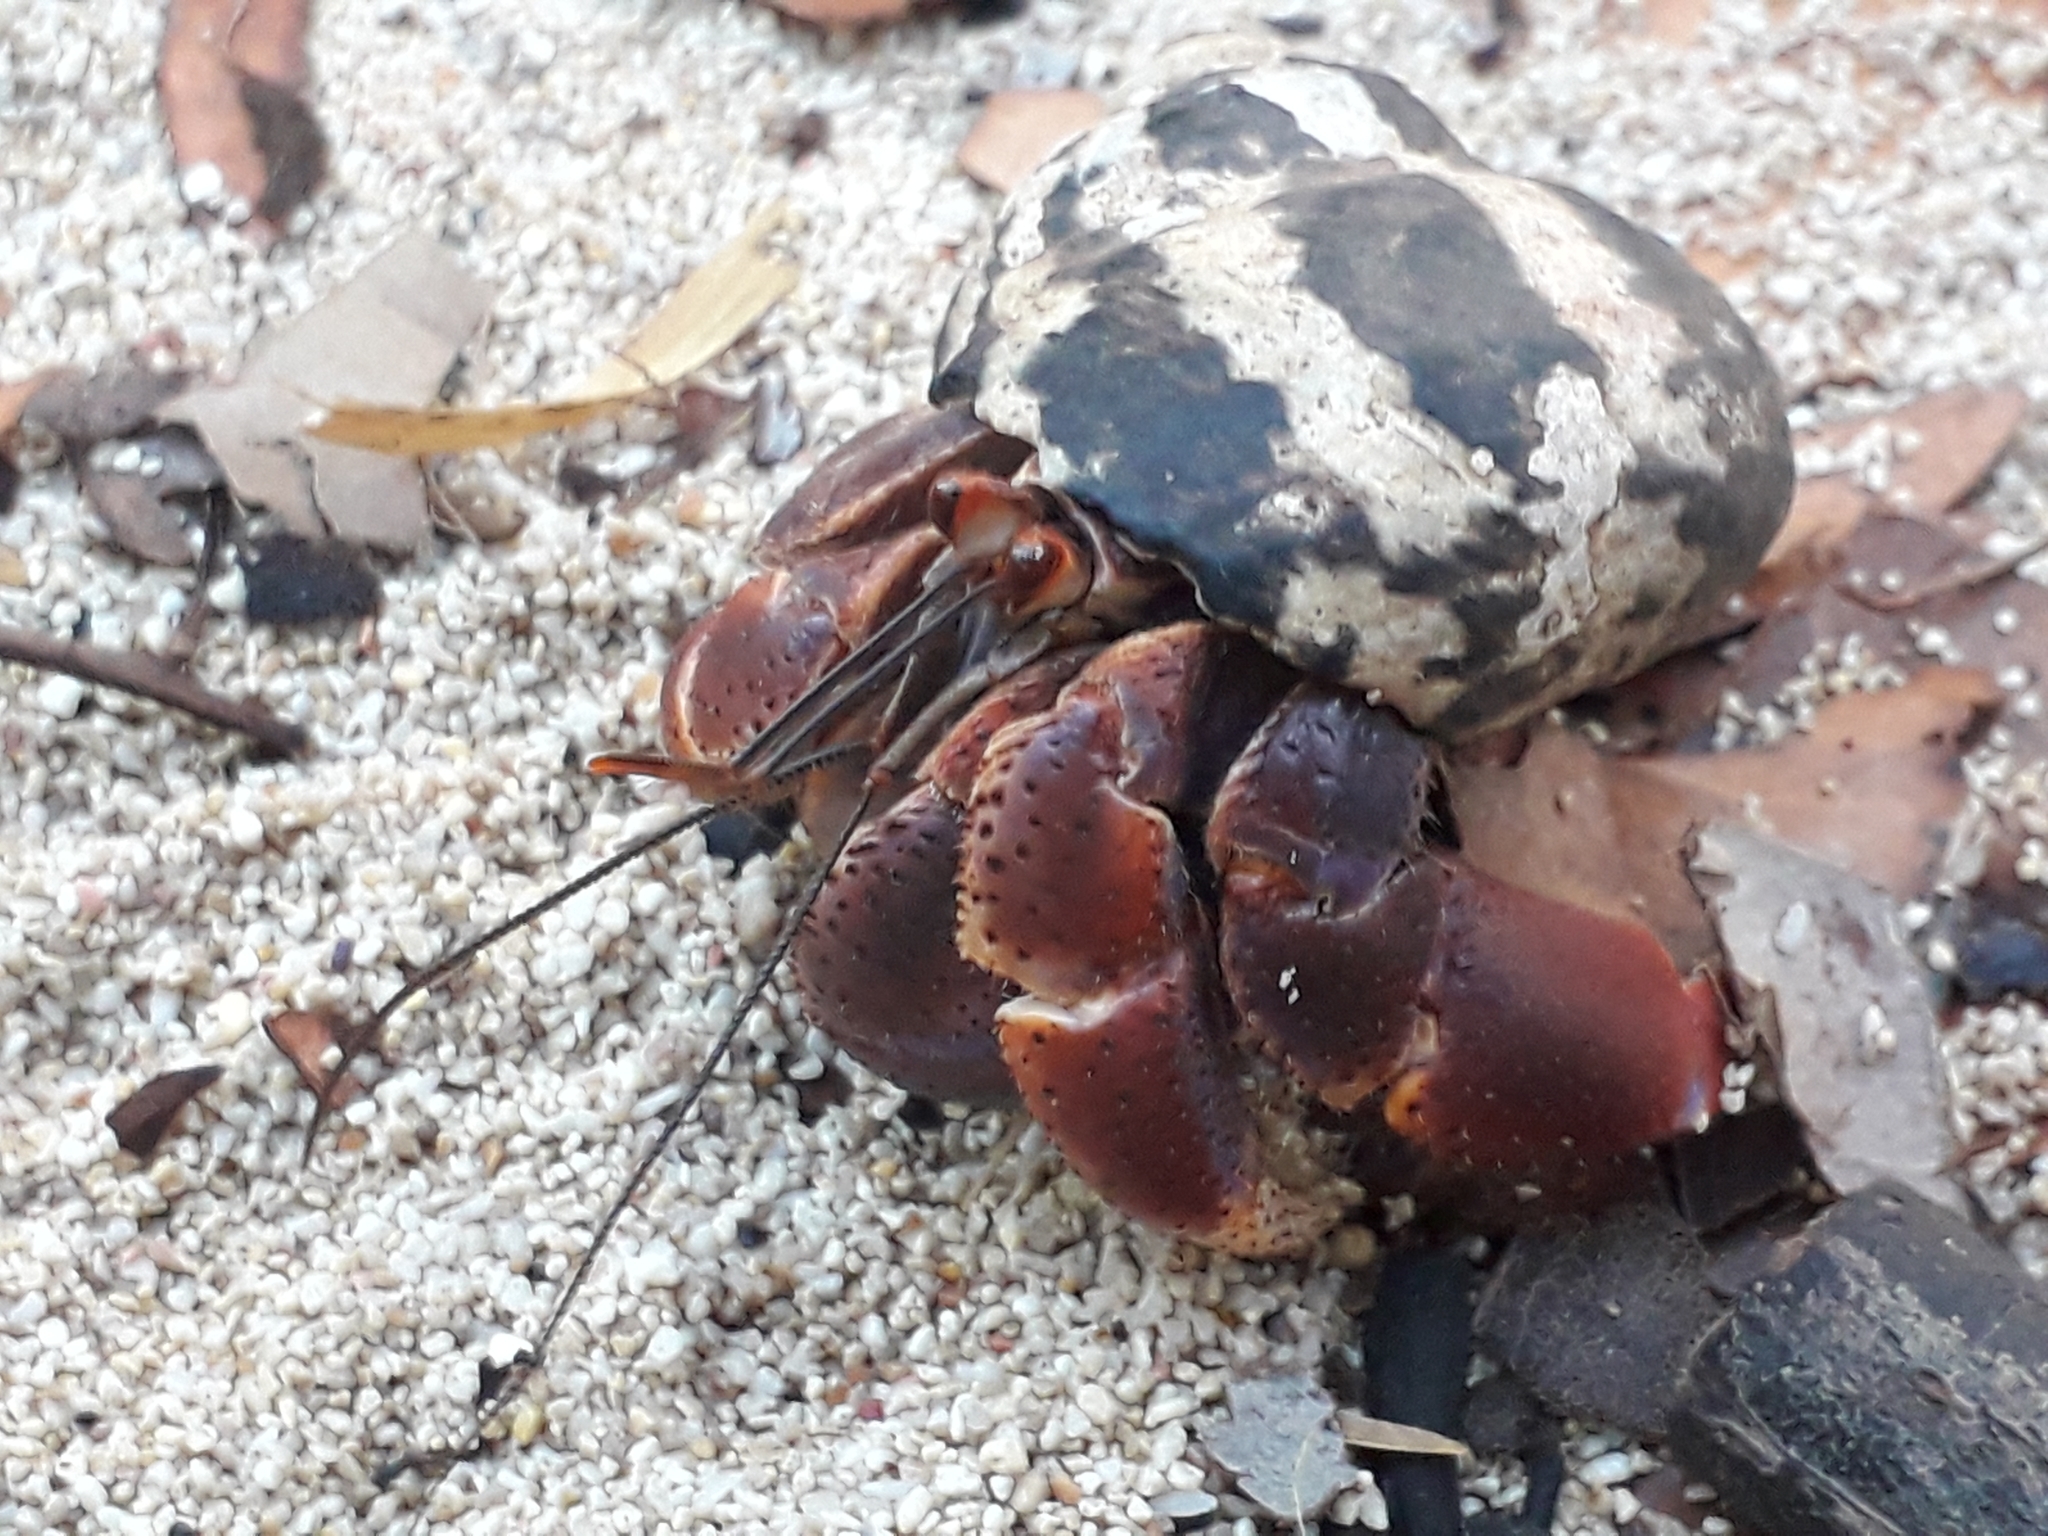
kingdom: Animalia
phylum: Arthropoda
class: Malacostraca
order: Decapoda
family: Coenobitidae
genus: Coenobita
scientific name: Coenobita clypeatus
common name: Caribbean hermit crab
